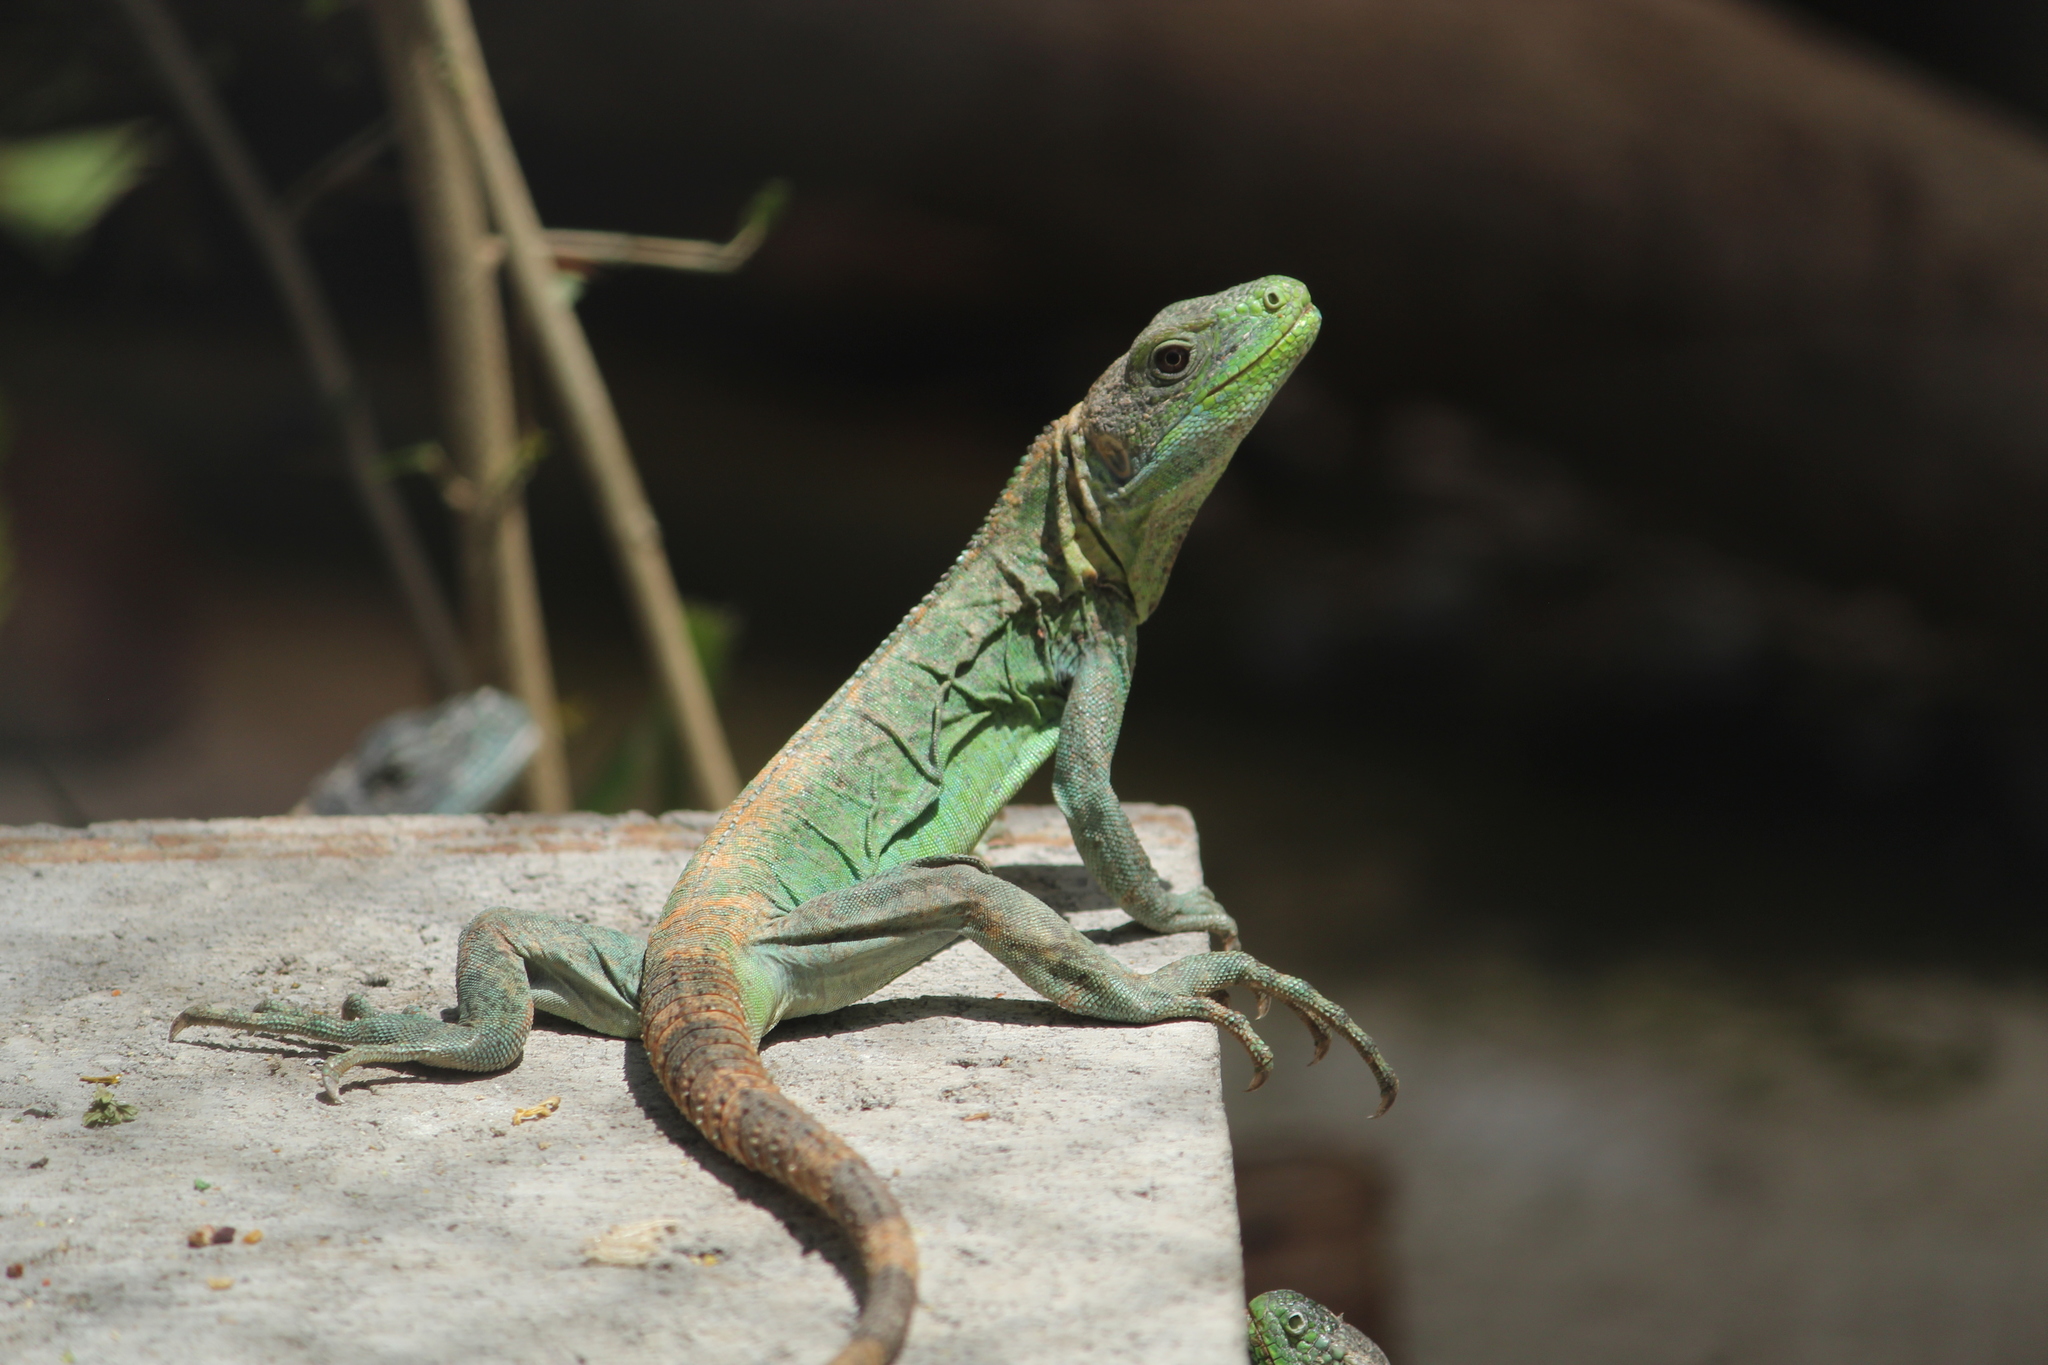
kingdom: Animalia
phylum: Chordata
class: Squamata
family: Iguanidae
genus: Ctenosaura
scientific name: Ctenosaura pectinata
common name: Guerreran spiny-tailed iguana
